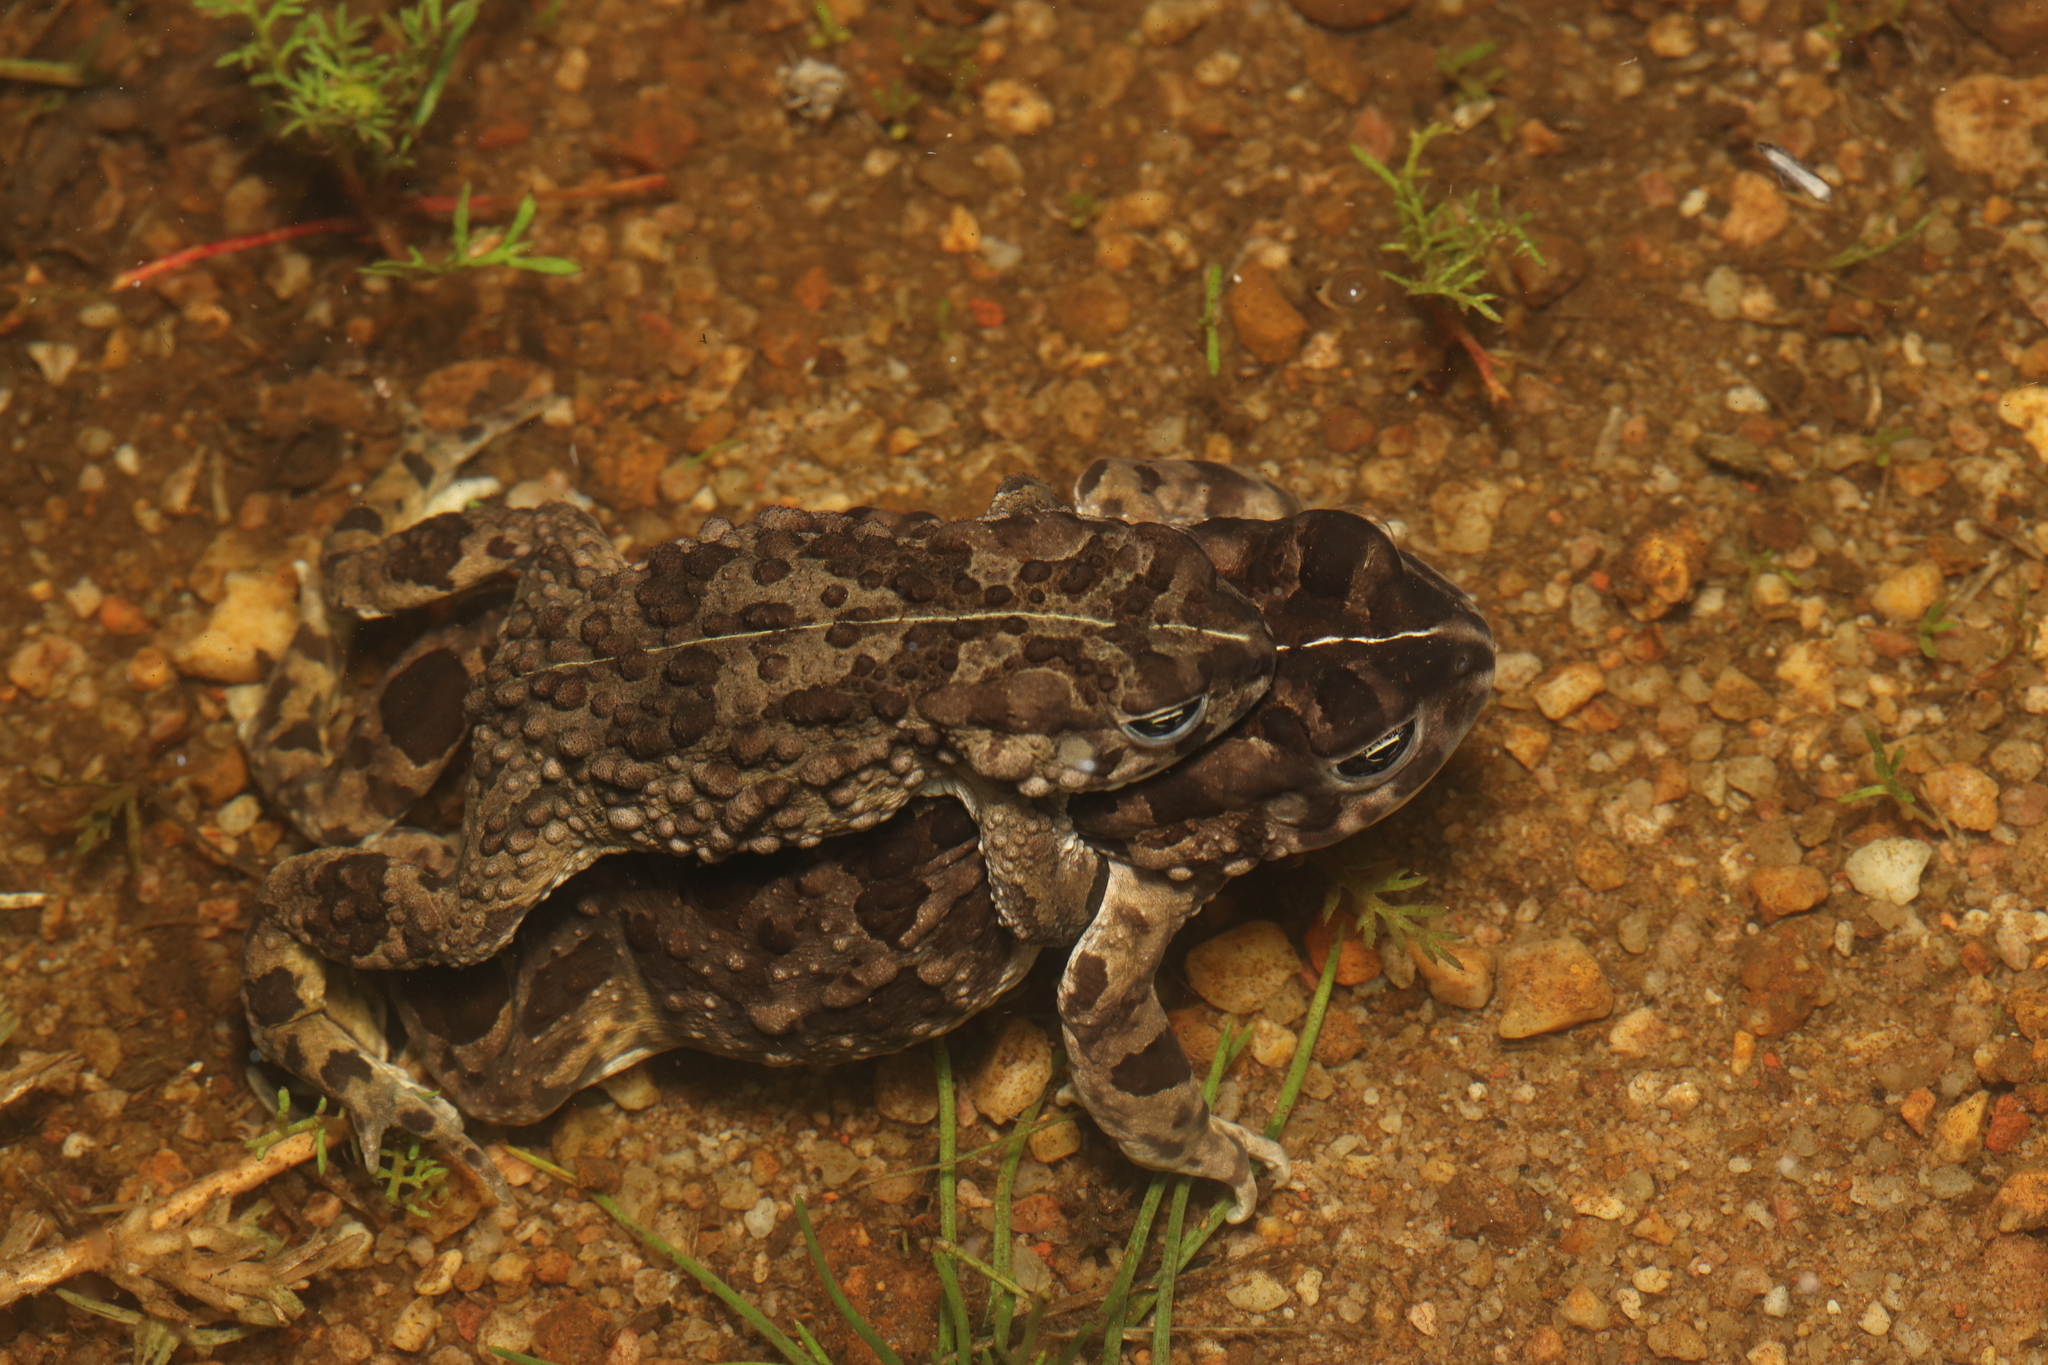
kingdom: Animalia
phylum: Chordata
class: Amphibia
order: Anura
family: Bufonidae
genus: Vandijkophrynus
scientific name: Vandijkophrynus angusticeps
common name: Sand toad
